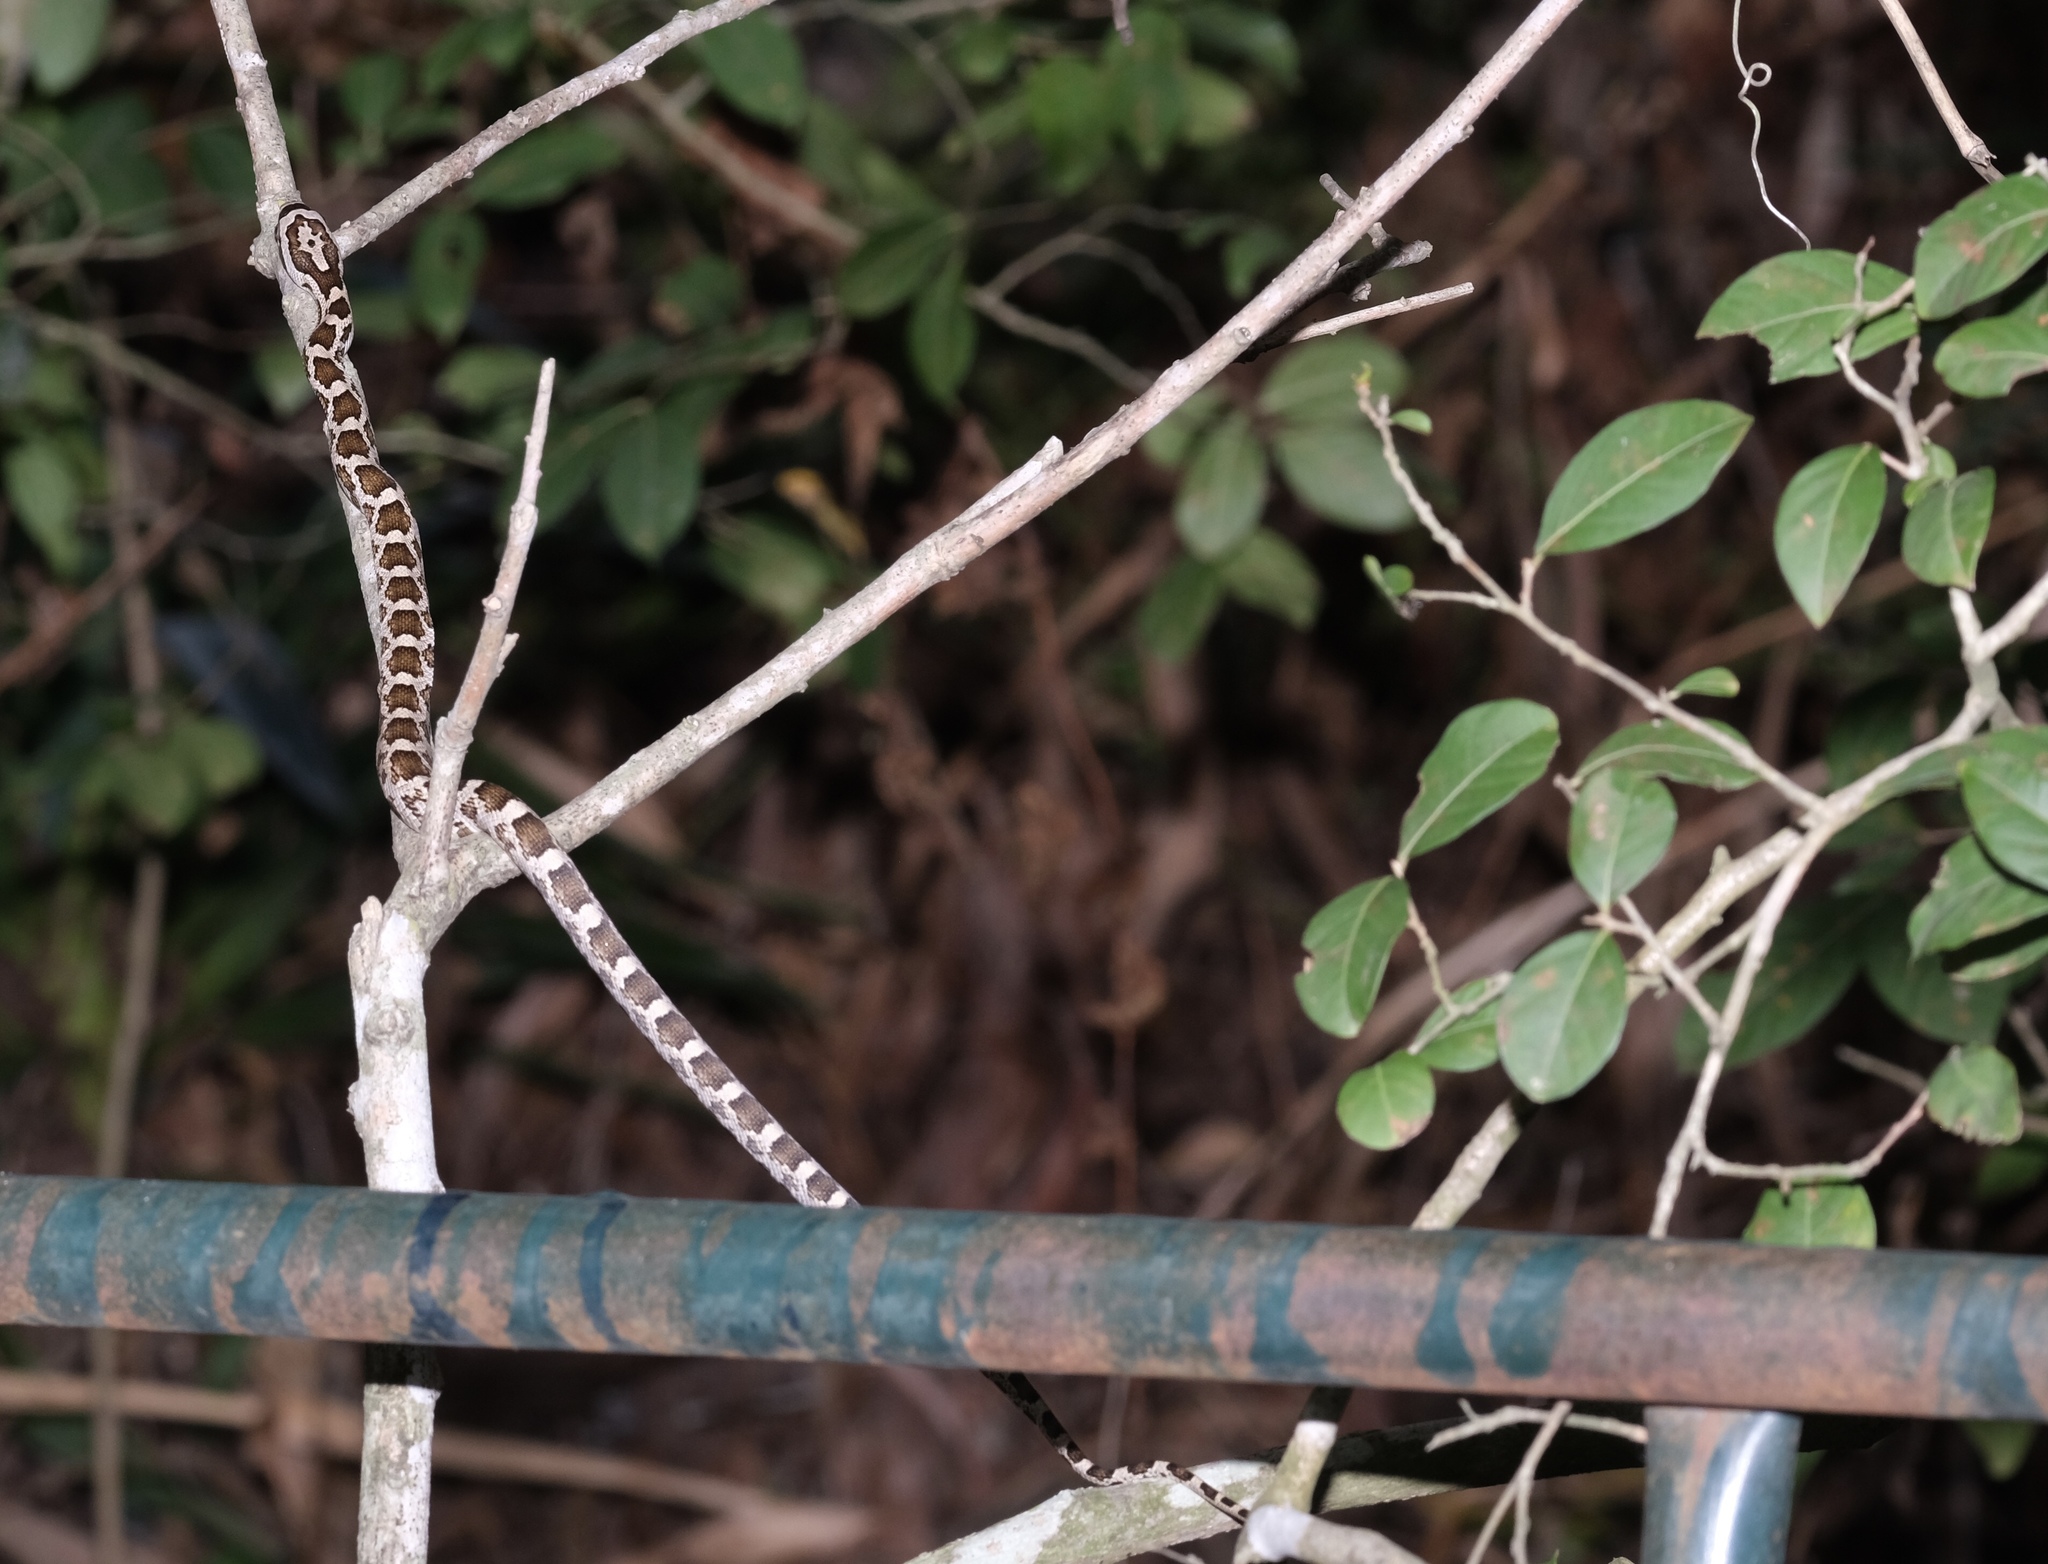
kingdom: Animalia
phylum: Chordata
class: Squamata
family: Colubridae
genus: Pantherophis
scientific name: Pantherophis obsoletus
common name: Black rat snake
